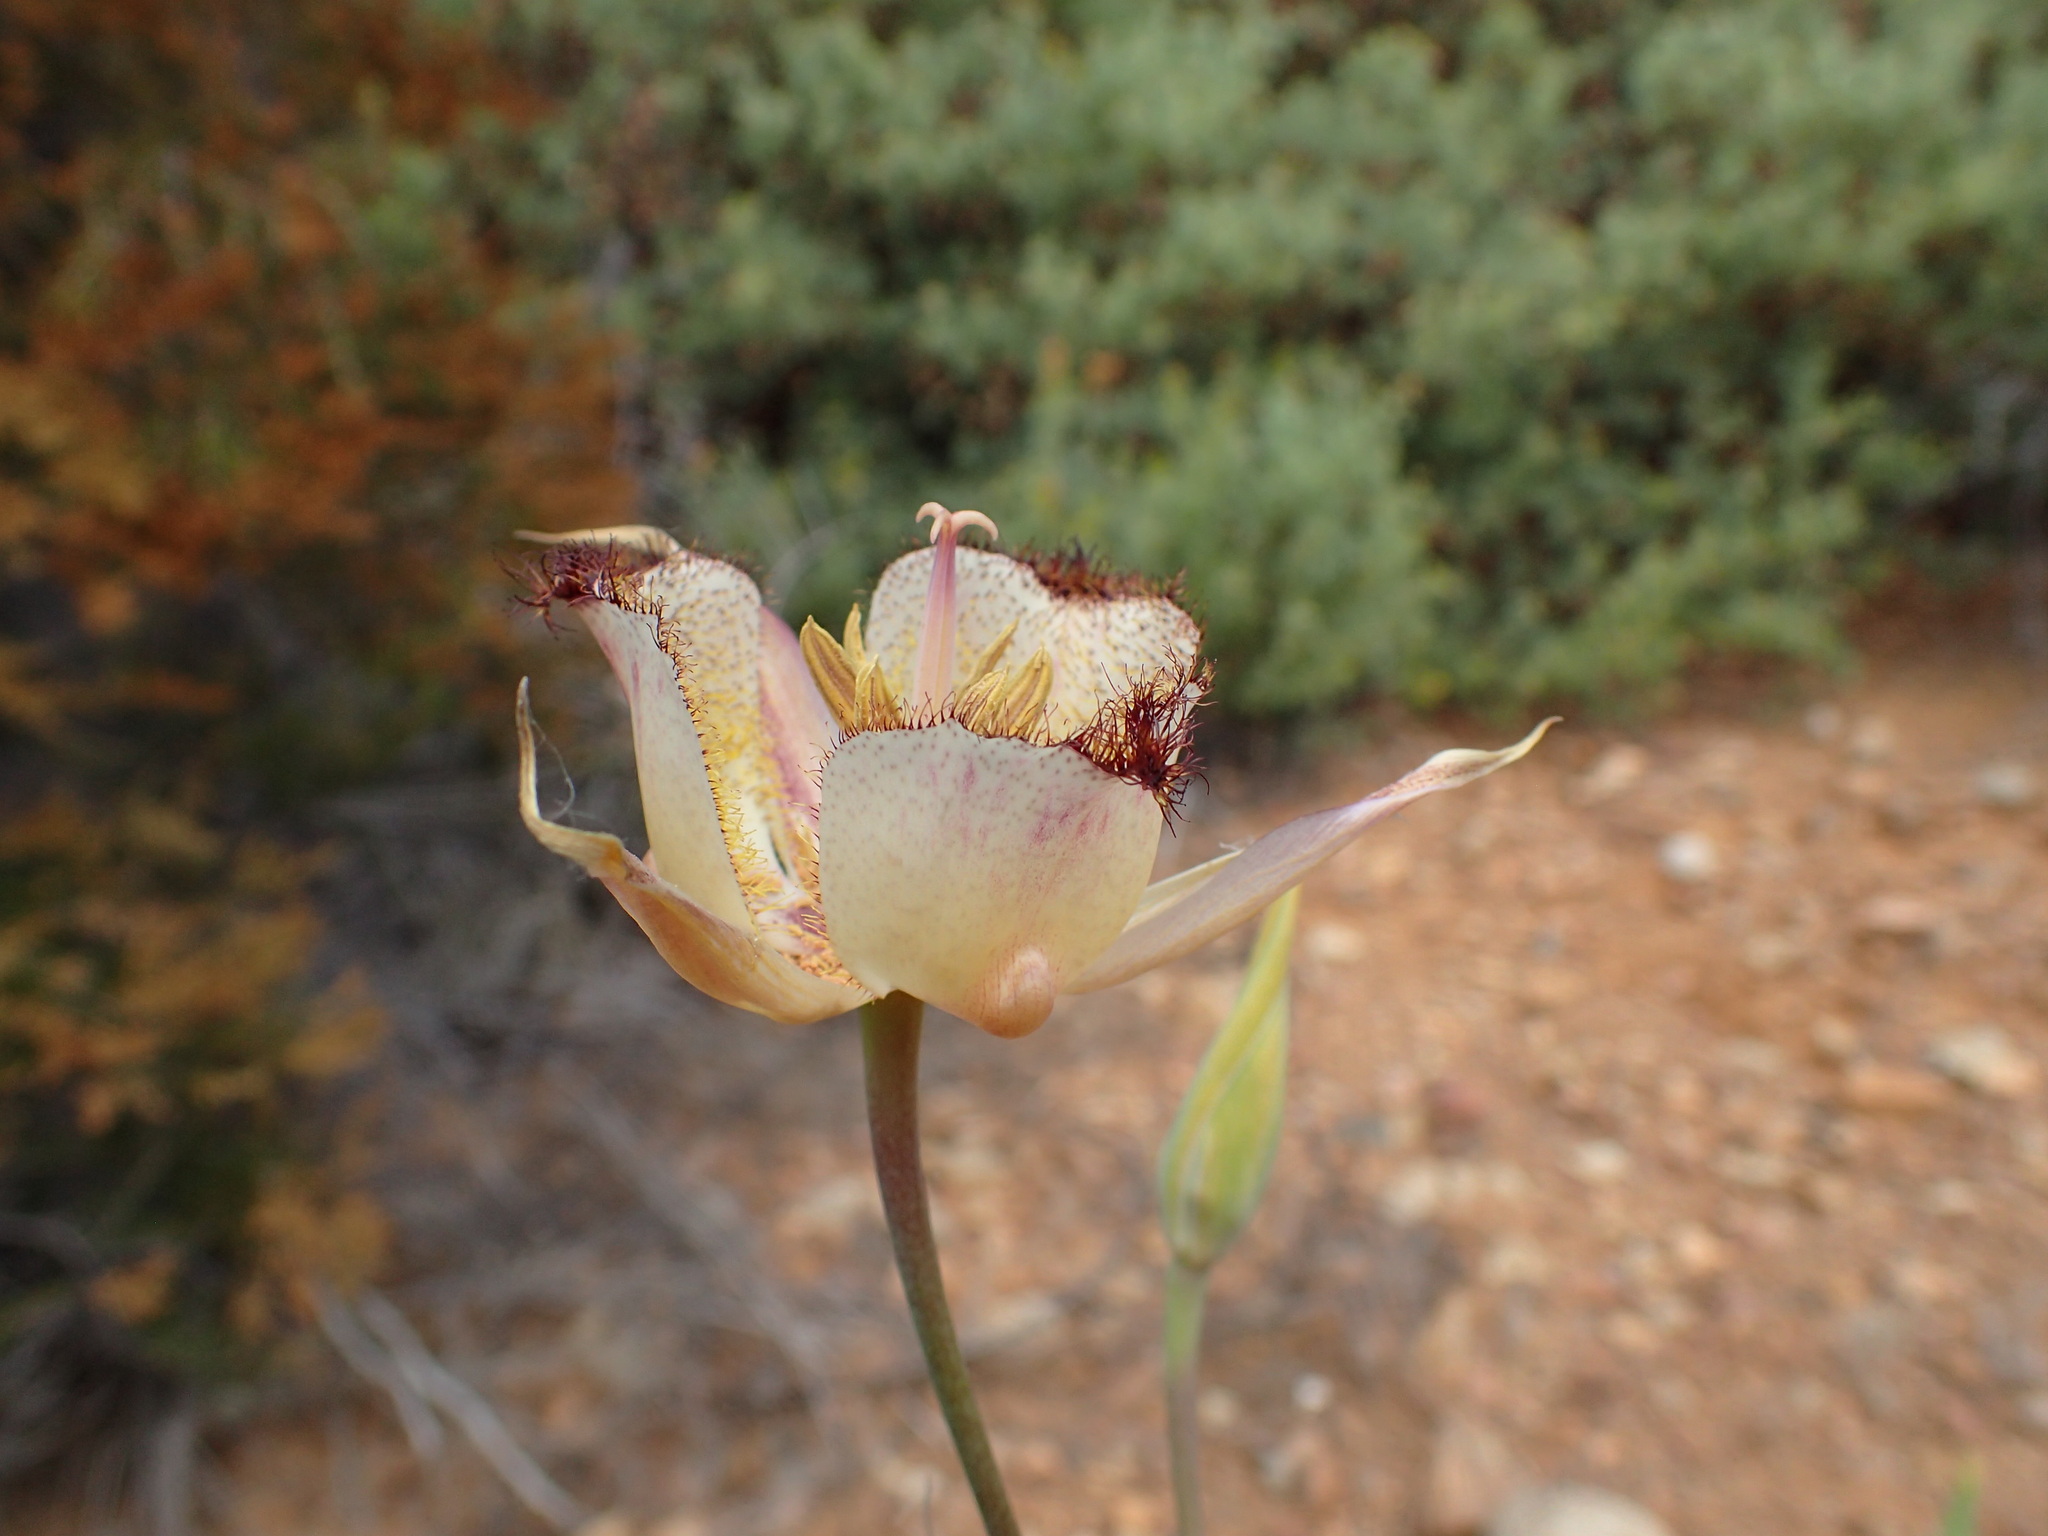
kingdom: Plantae
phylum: Tracheophyta
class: Liliopsida
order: Liliales
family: Liliaceae
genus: Calochortus
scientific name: Calochortus fimbriatus
